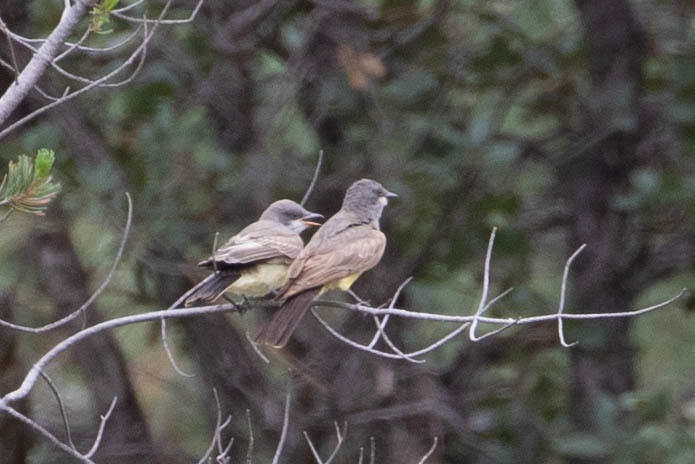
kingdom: Animalia
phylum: Chordata
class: Aves
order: Passeriformes
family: Tyrannidae
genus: Tyrannus
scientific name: Tyrannus vociferans
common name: Cassin's kingbird
